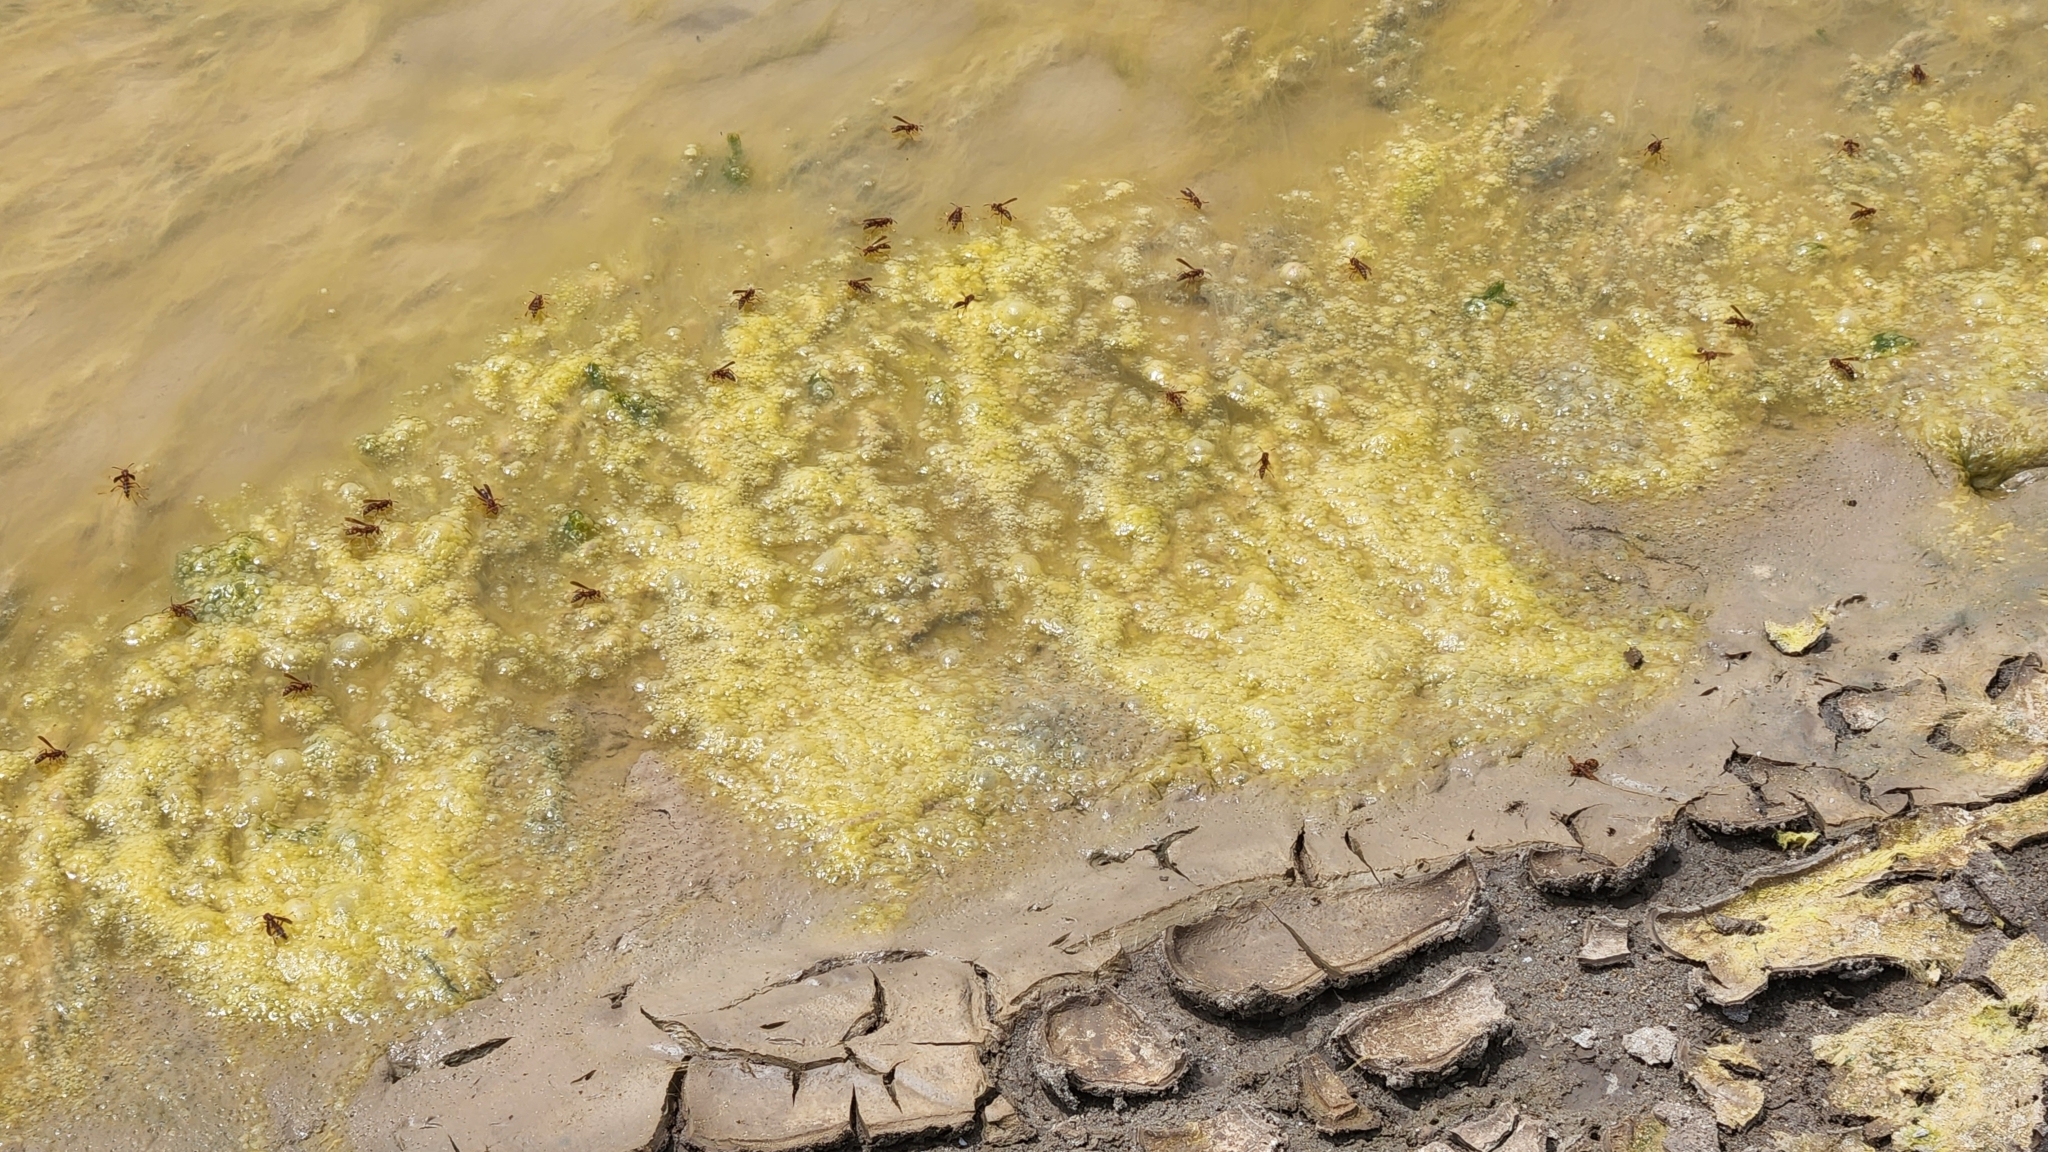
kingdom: Animalia
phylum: Arthropoda
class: Insecta
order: Hymenoptera
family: Eumenidae
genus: Polistes
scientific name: Polistes dorsalis
